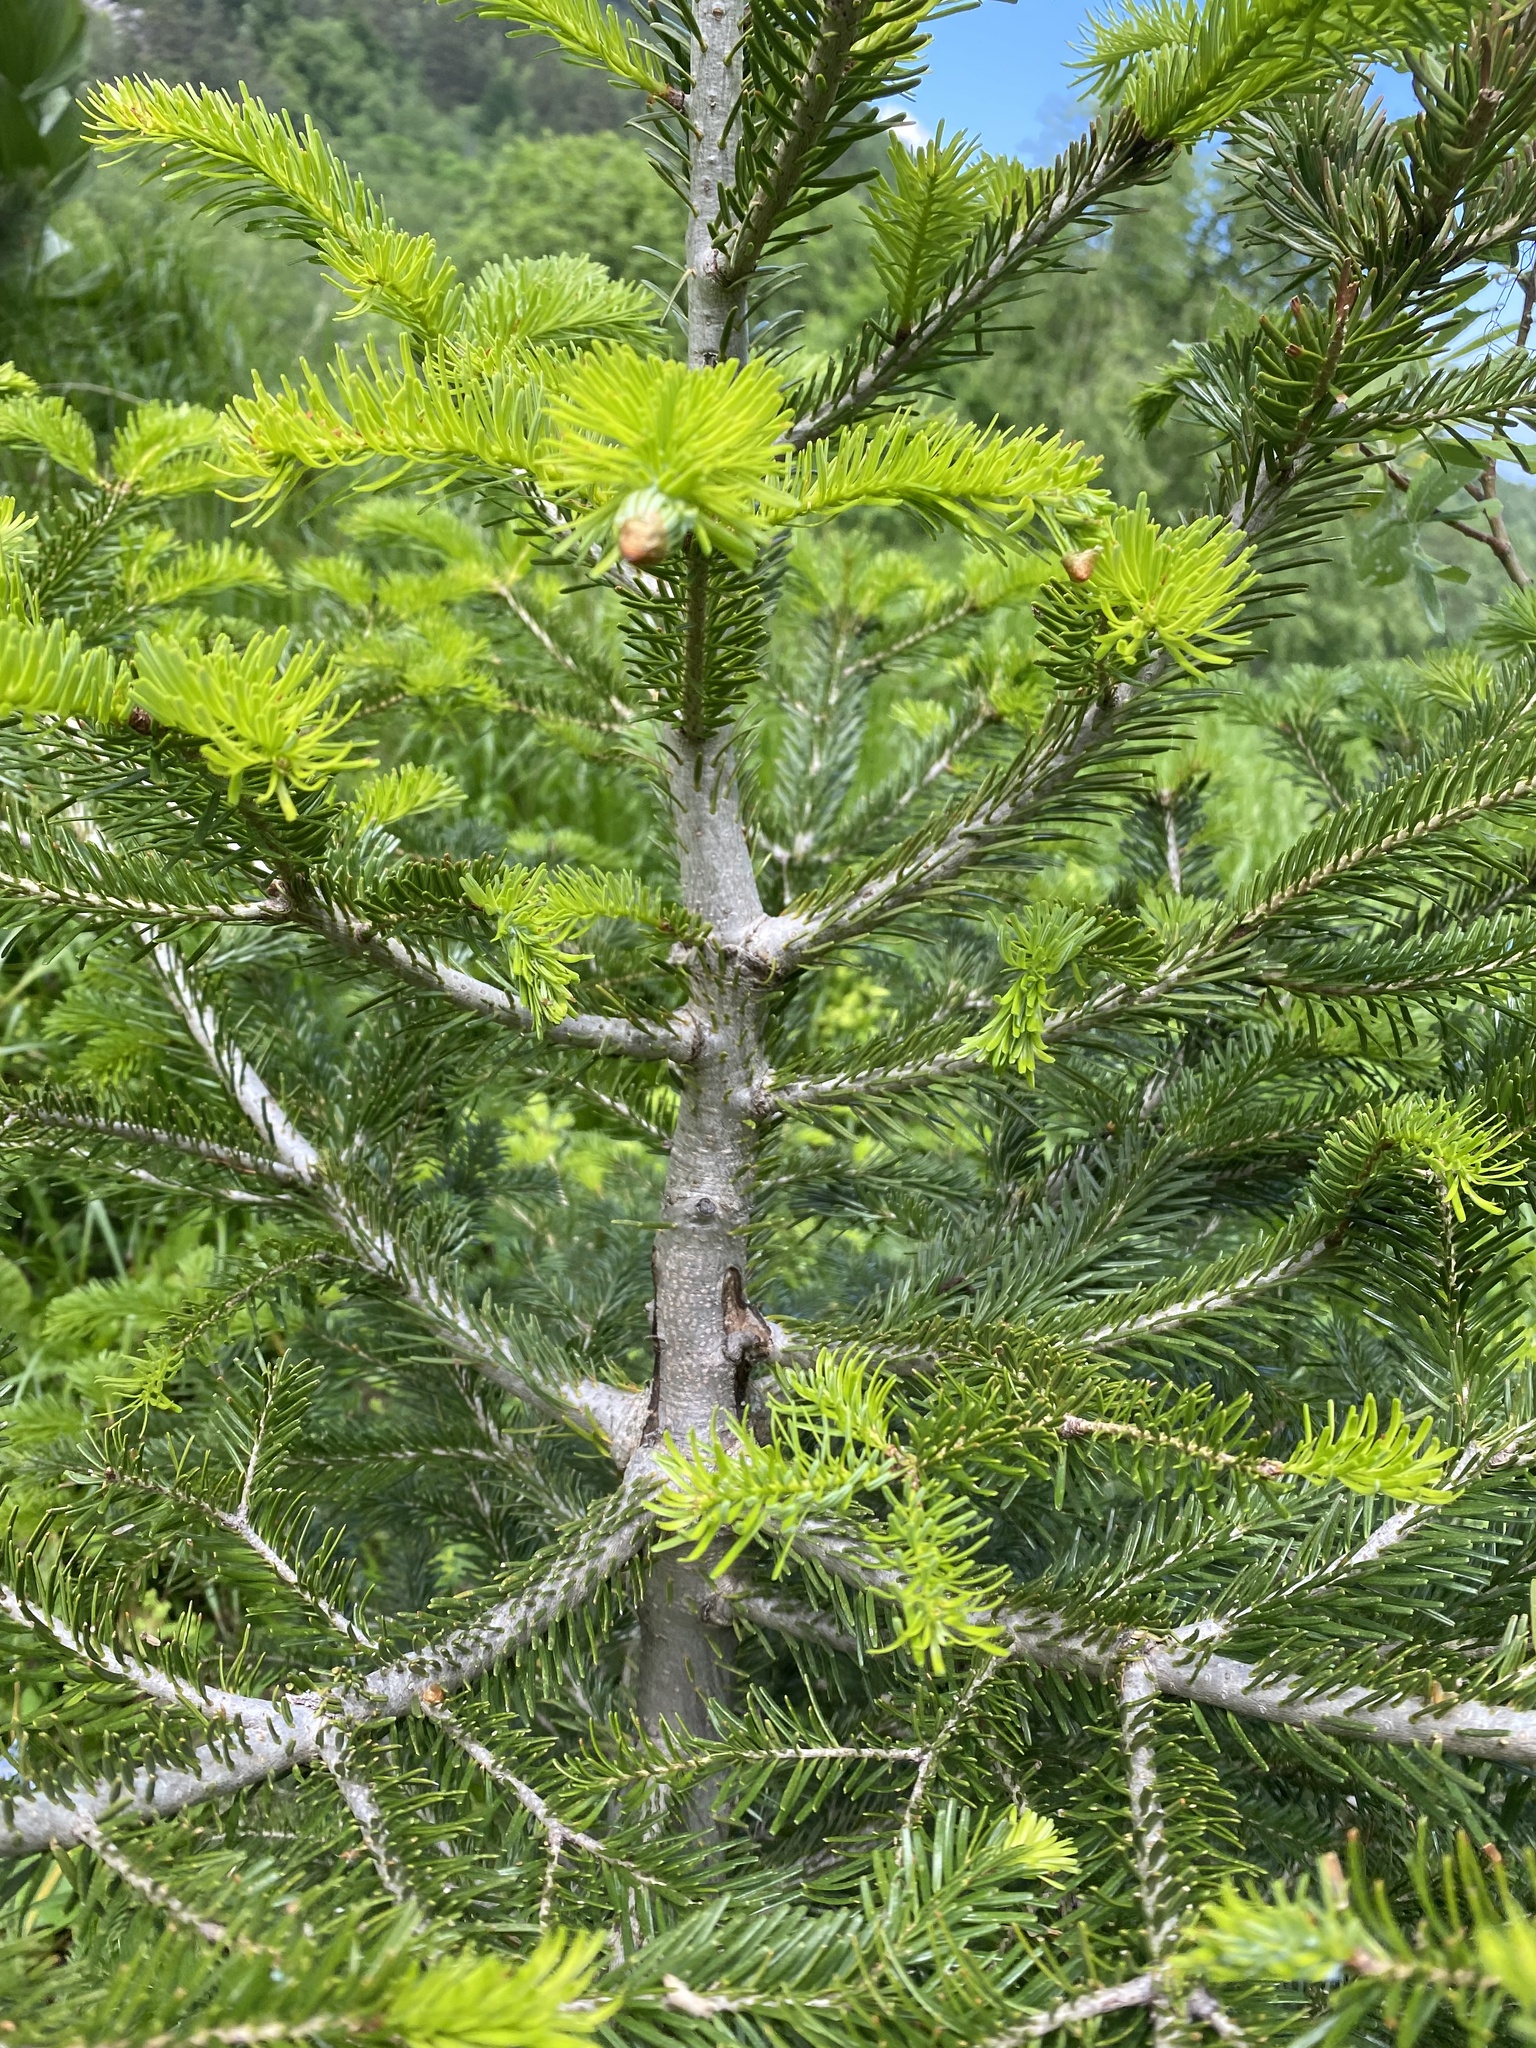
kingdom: Plantae
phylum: Tracheophyta
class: Pinopsida
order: Pinales
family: Pinaceae
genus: Abies
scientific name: Abies nordmanniana
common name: Caucasian fir
